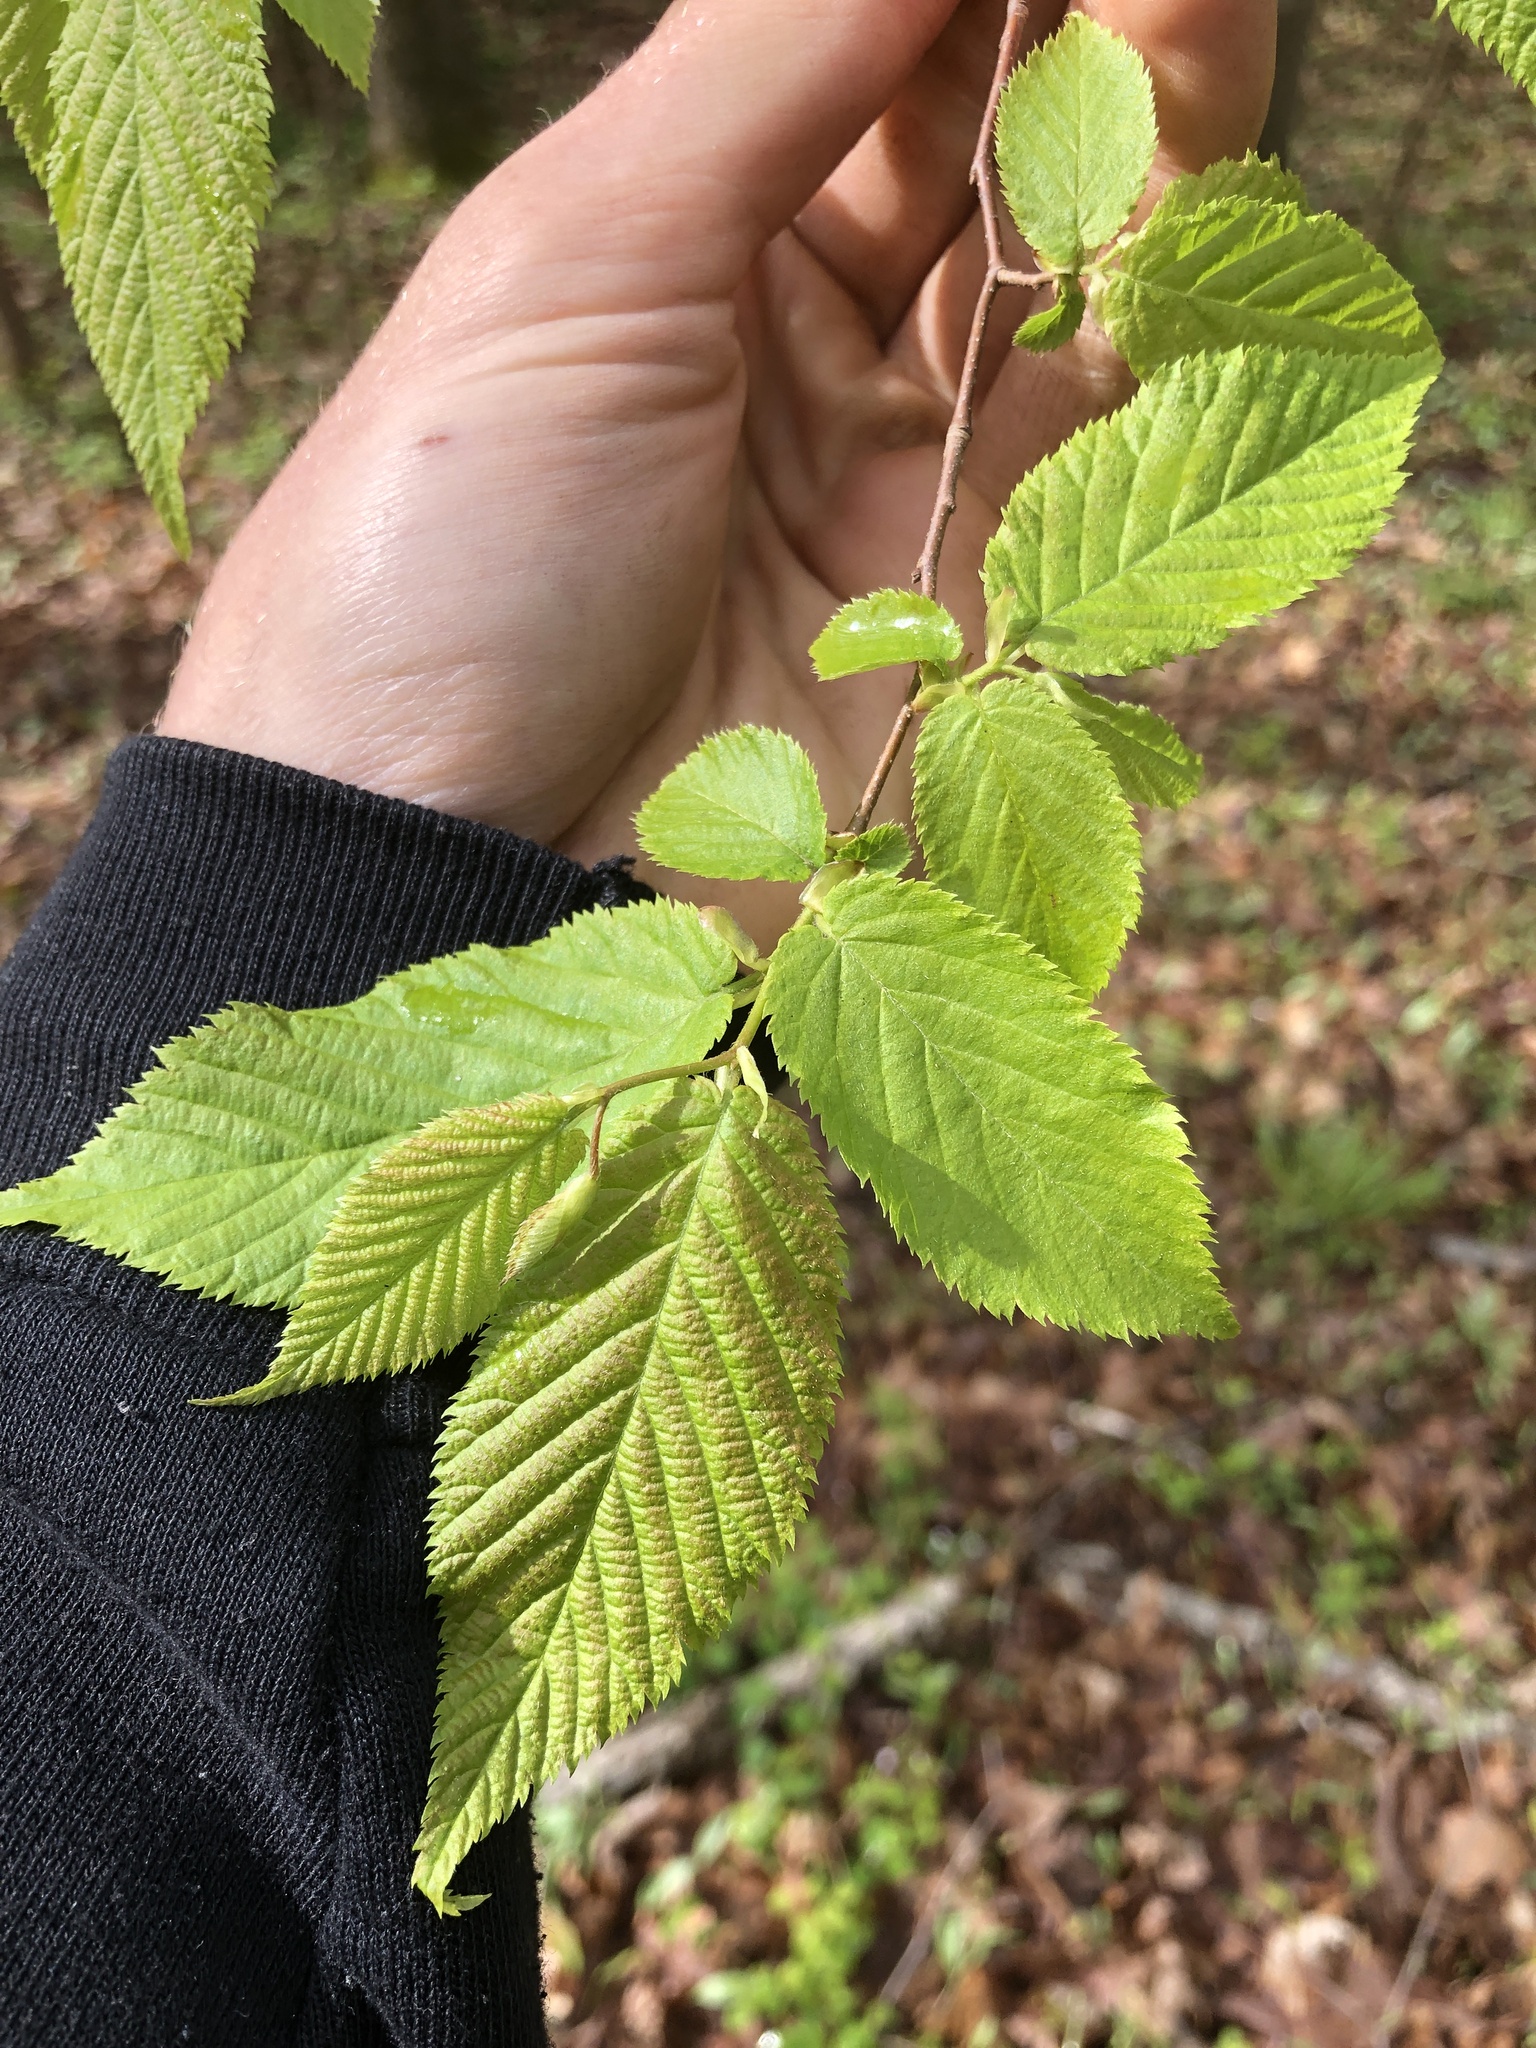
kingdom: Plantae
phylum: Tracheophyta
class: Magnoliopsida
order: Fagales
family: Betulaceae
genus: Ostrya
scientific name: Ostrya virginiana
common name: Ironwood
